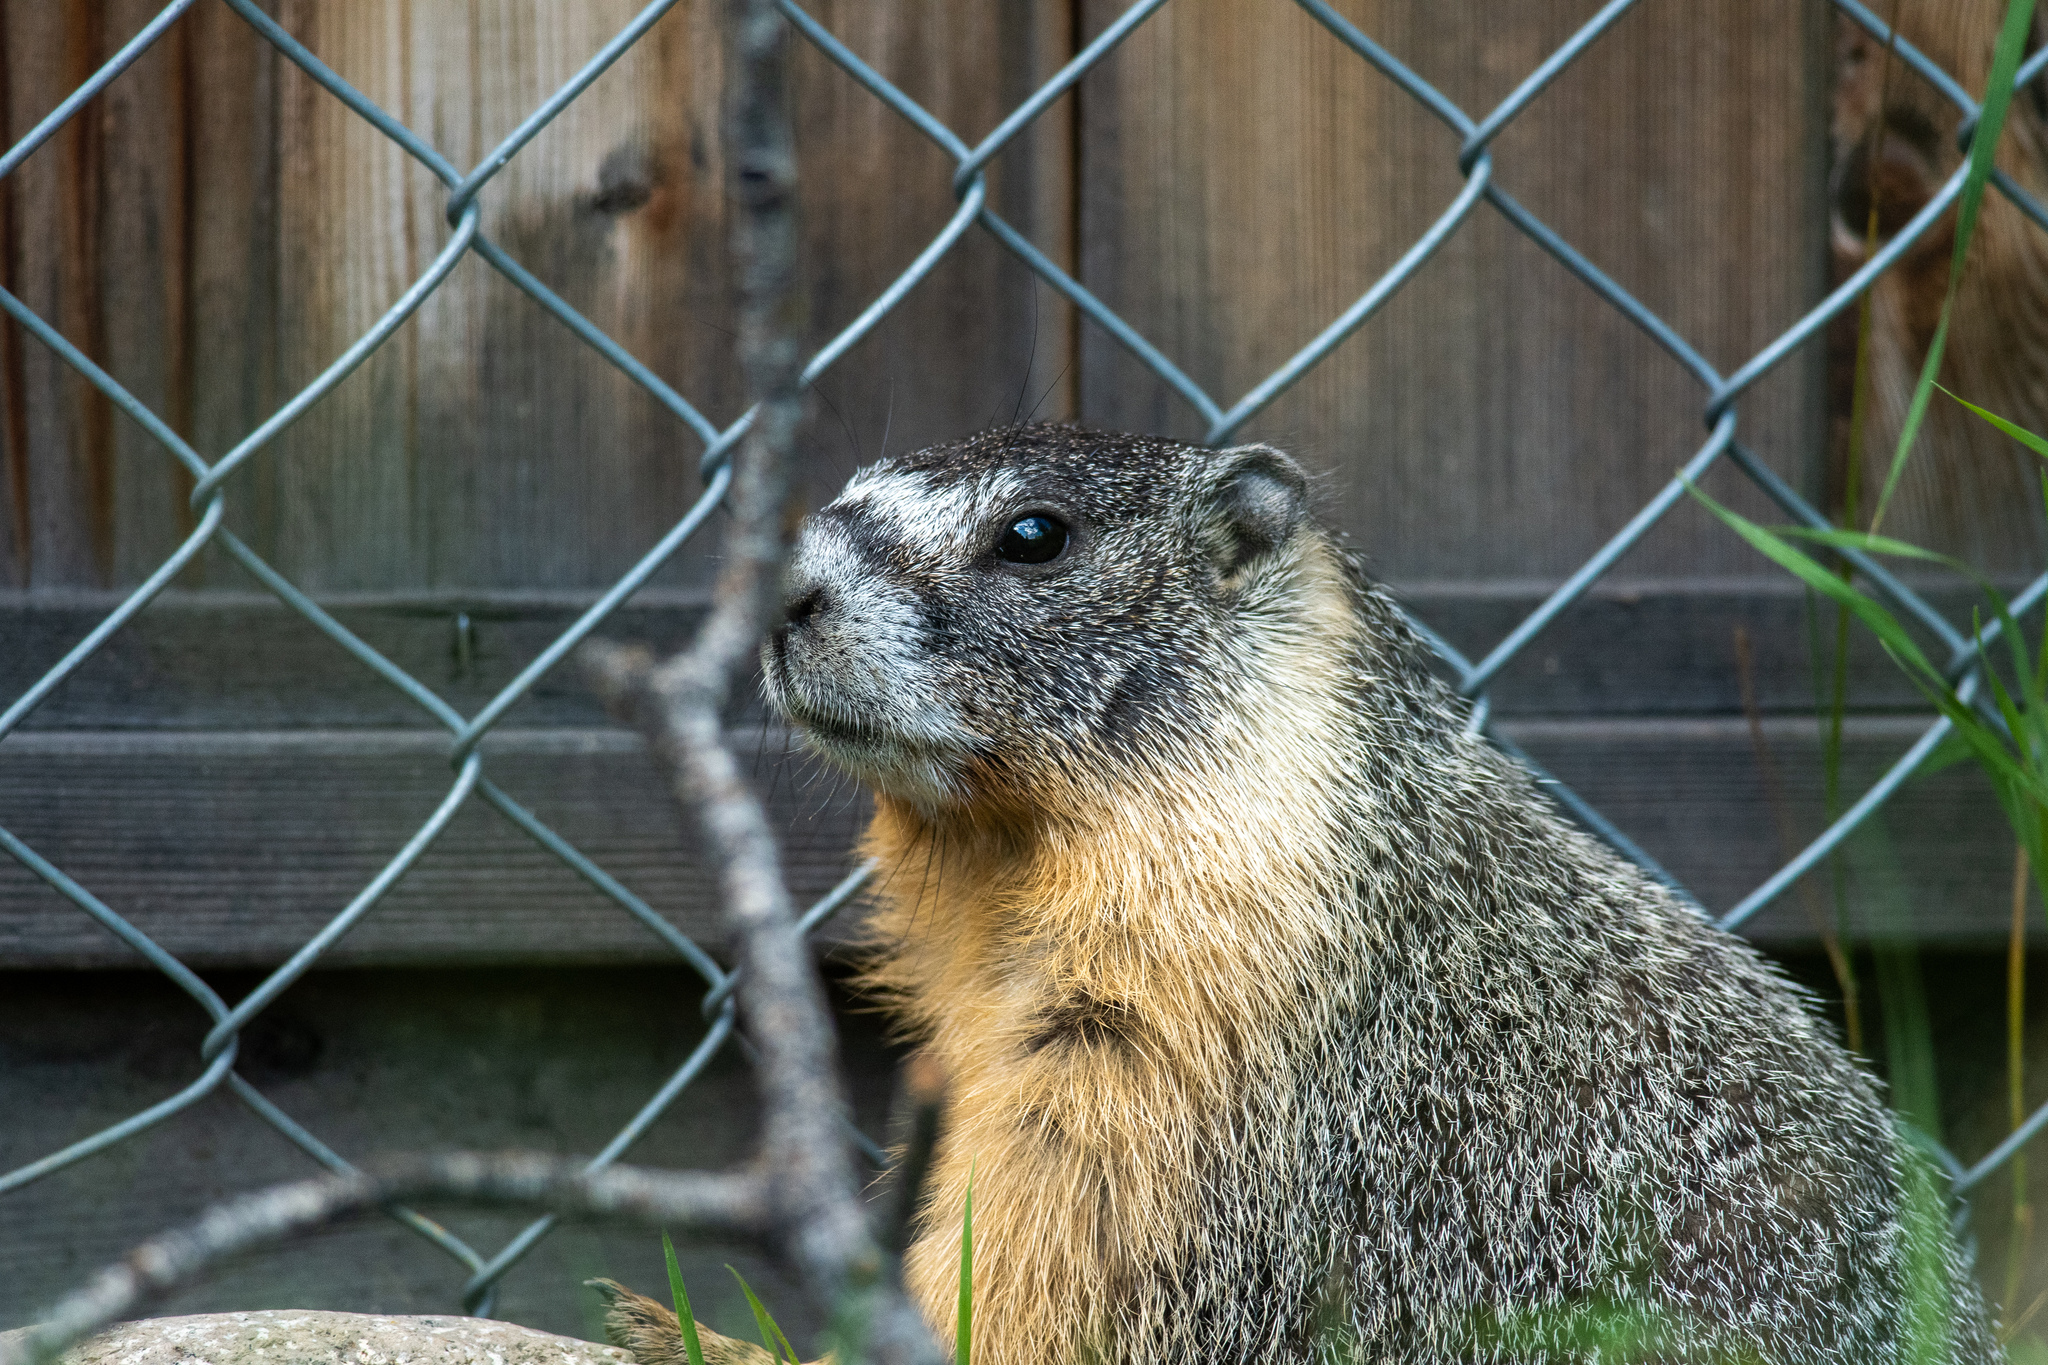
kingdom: Animalia
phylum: Chordata
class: Mammalia
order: Rodentia
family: Sciuridae
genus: Marmota
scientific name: Marmota flaviventris
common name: Yellow-bellied marmot
